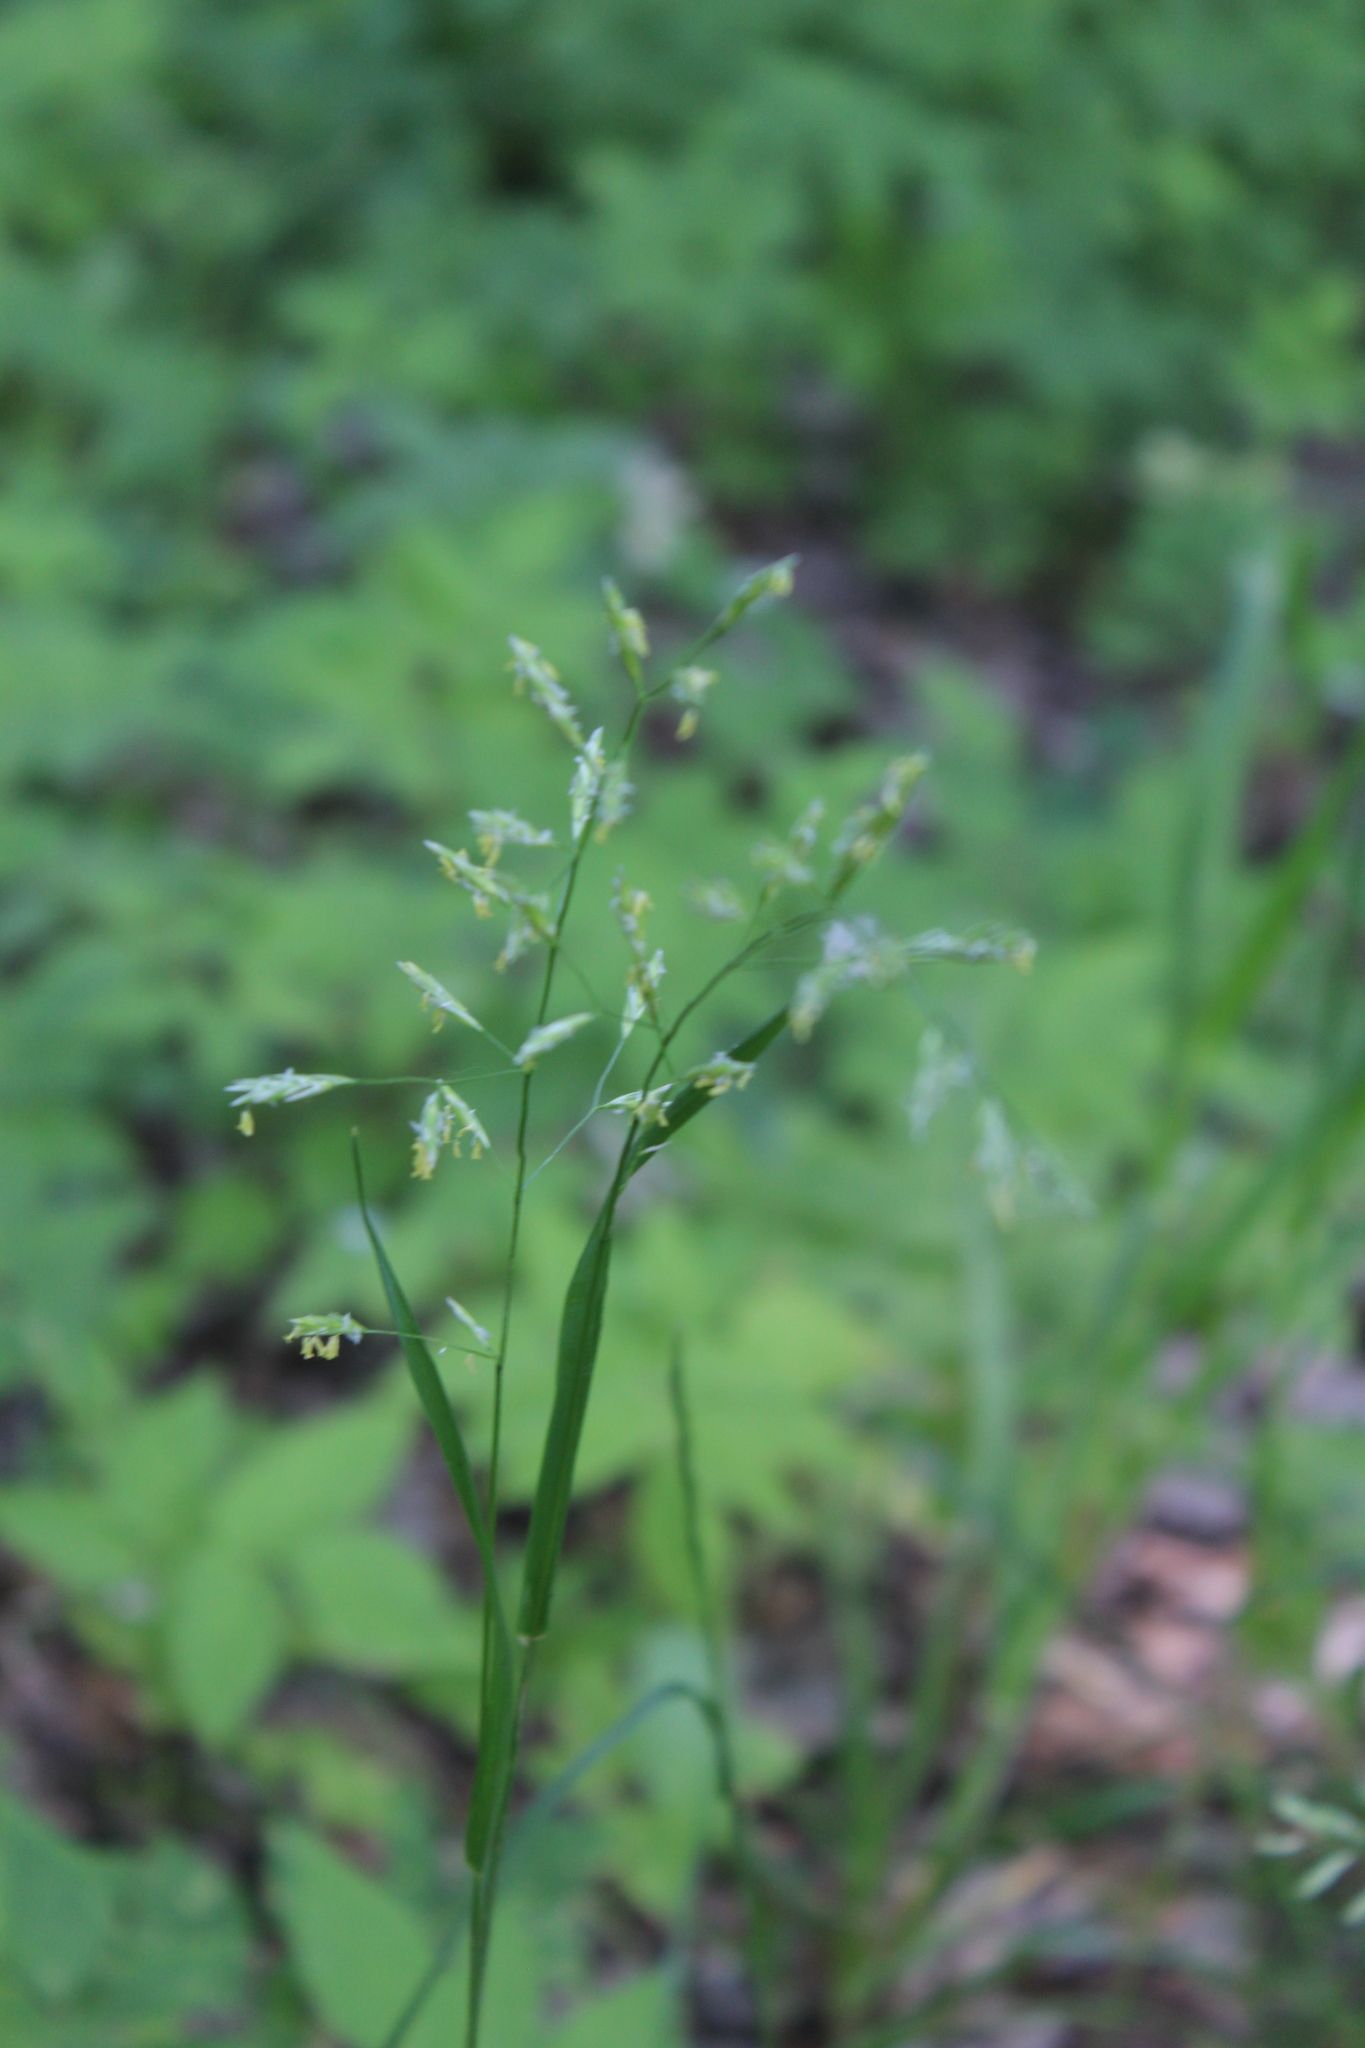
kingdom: Plantae
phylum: Tracheophyta
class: Liliopsida
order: Poales
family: Poaceae
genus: Lolium
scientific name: Lolium pratense
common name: Dover grass
